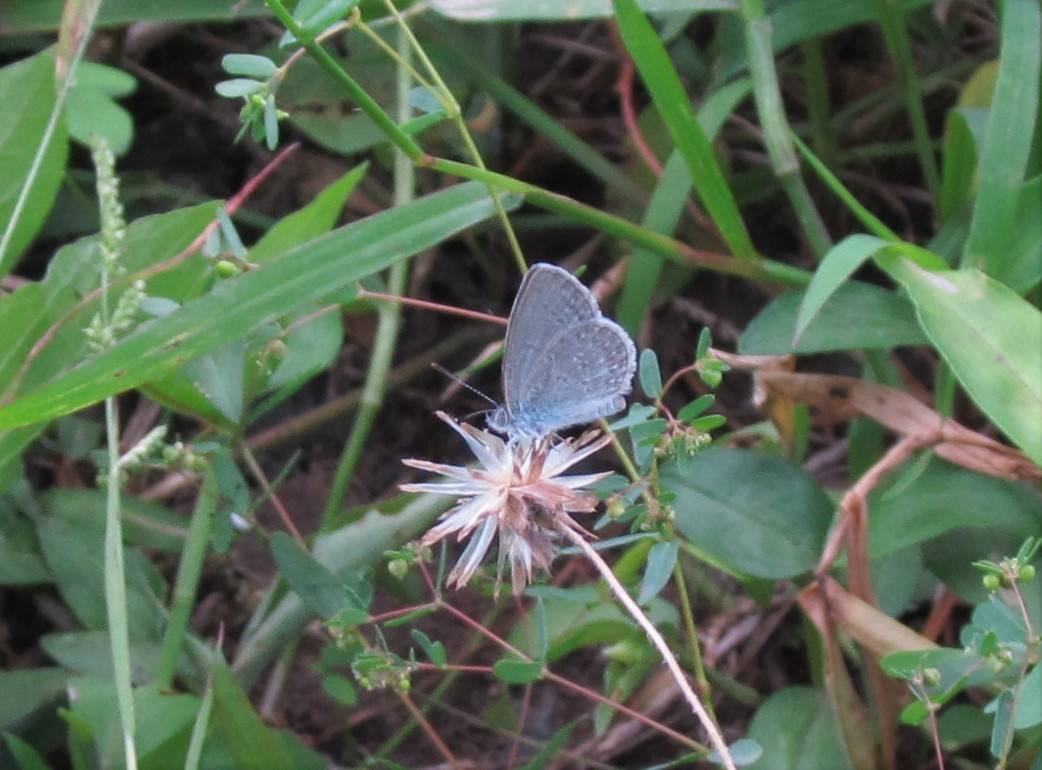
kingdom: Animalia
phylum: Arthropoda
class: Insecta
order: Lepidoptera
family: Lycaenidae
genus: Zizina
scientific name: Zizina labradus
